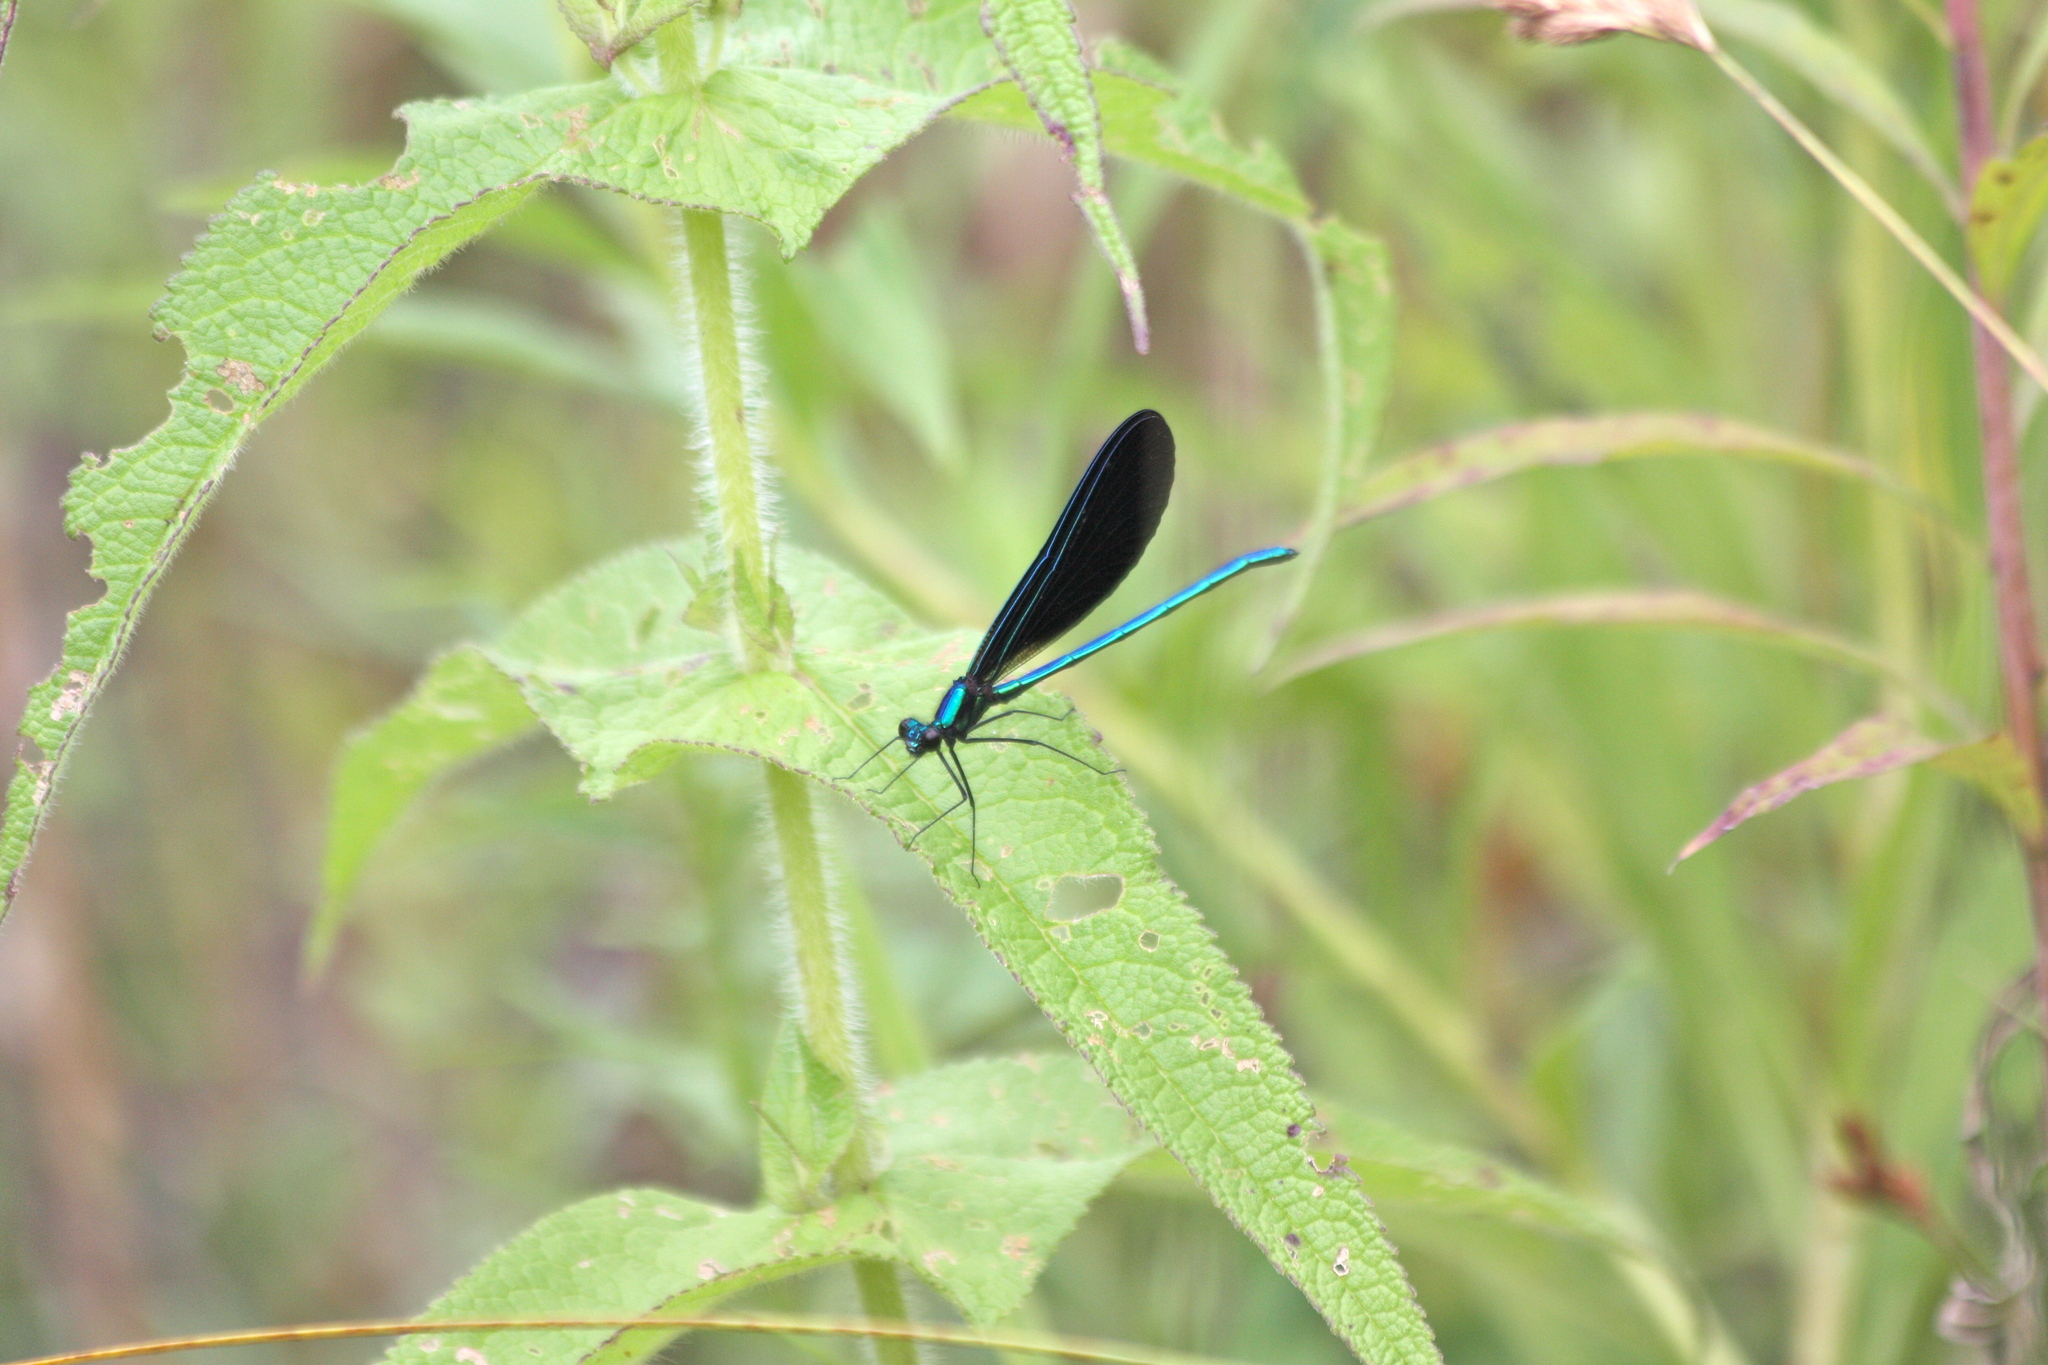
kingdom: Animalia
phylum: Arthropoda
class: Insecta
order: Odonata
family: Calopterygidae
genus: Calopteryx
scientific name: Calopteryx maculata
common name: Ebony jewelwing
